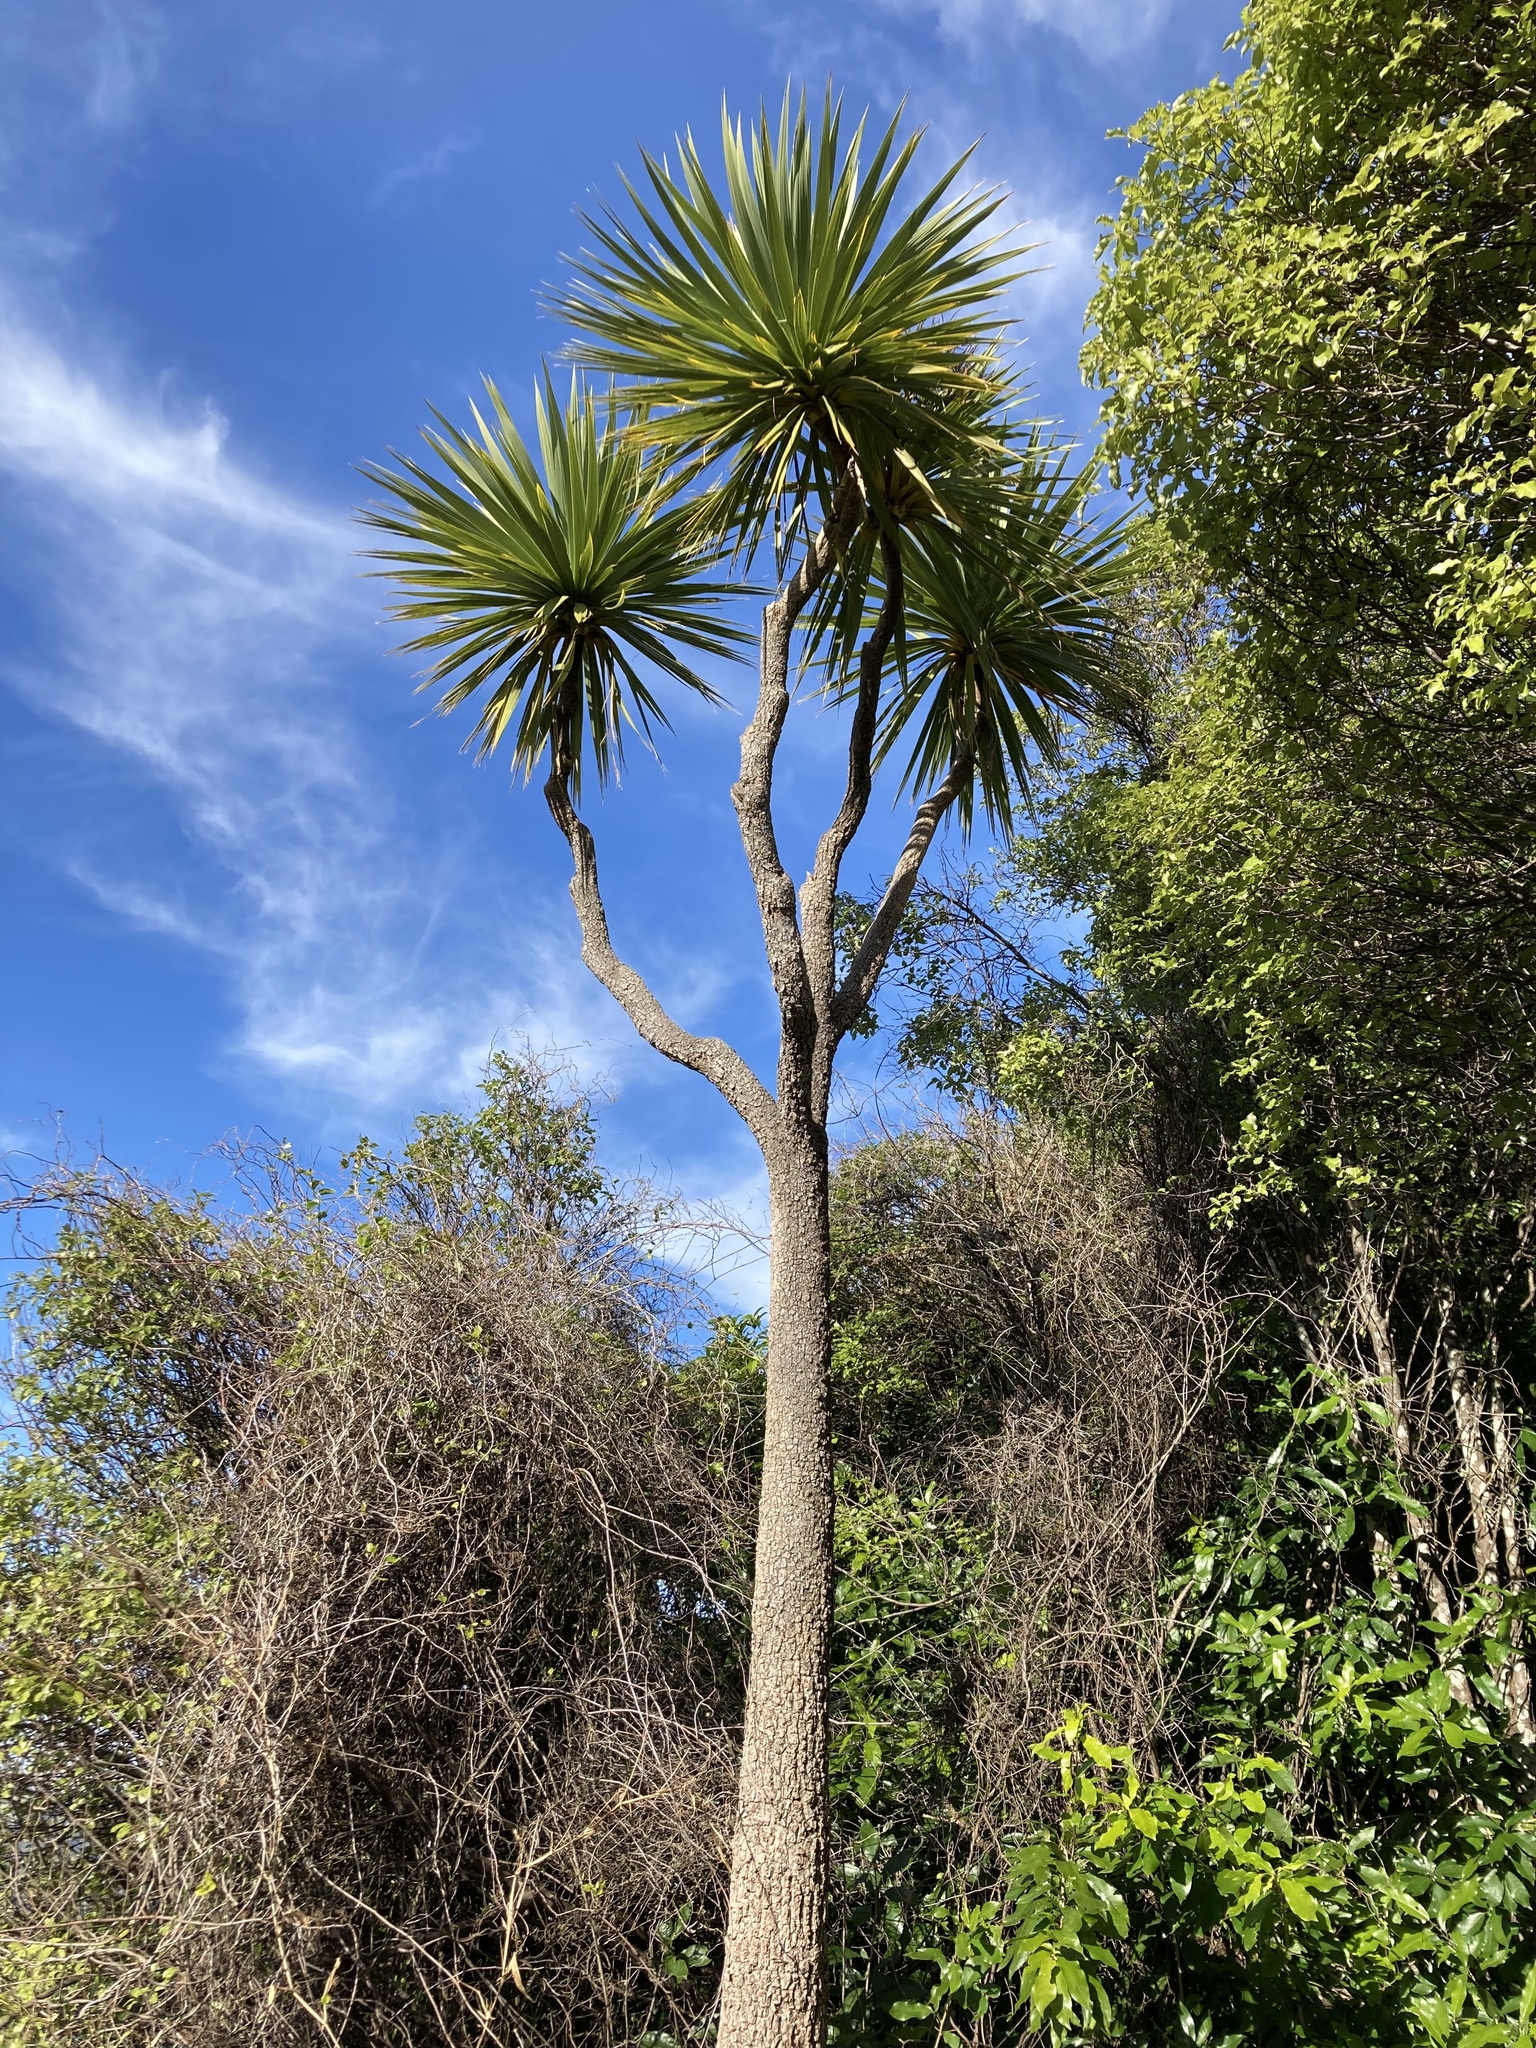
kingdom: Plantae
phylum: Tracheophyta
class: Liliopsida
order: Asparagales
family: Asparagaceae
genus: Cordyline
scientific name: Cordyline australis
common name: Cabbage-palm
